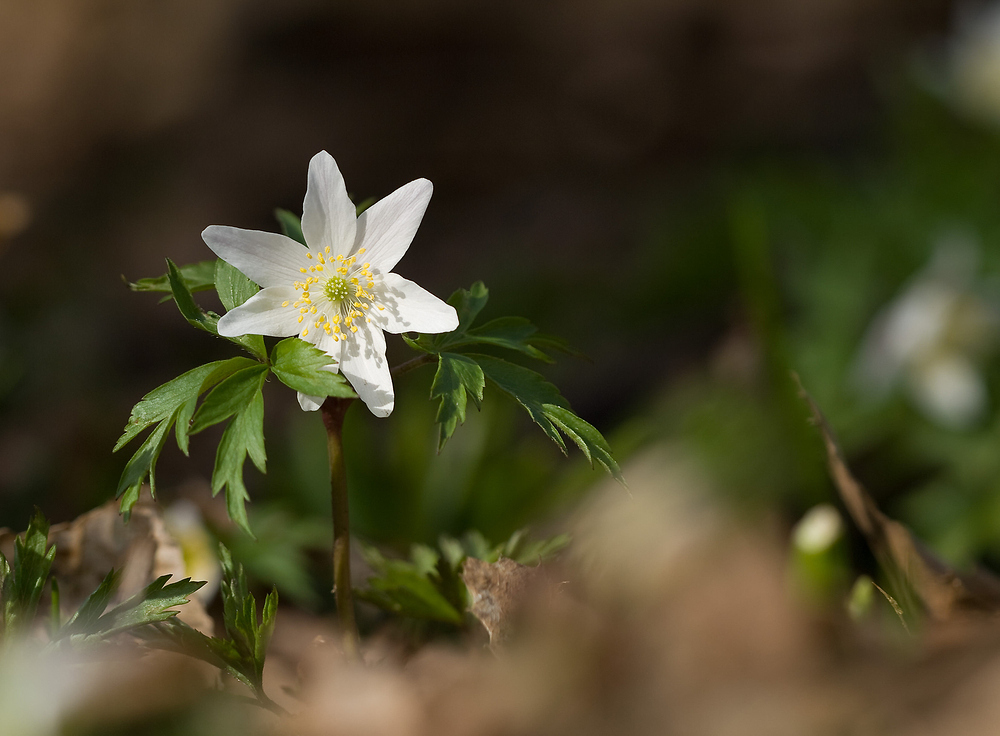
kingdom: Plantae
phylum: Tracheophyta
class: Magnoliopsida
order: Ranunculales
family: Ranunculaceae
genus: Anemone
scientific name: Anemone nemorosa
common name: Wood anemone
